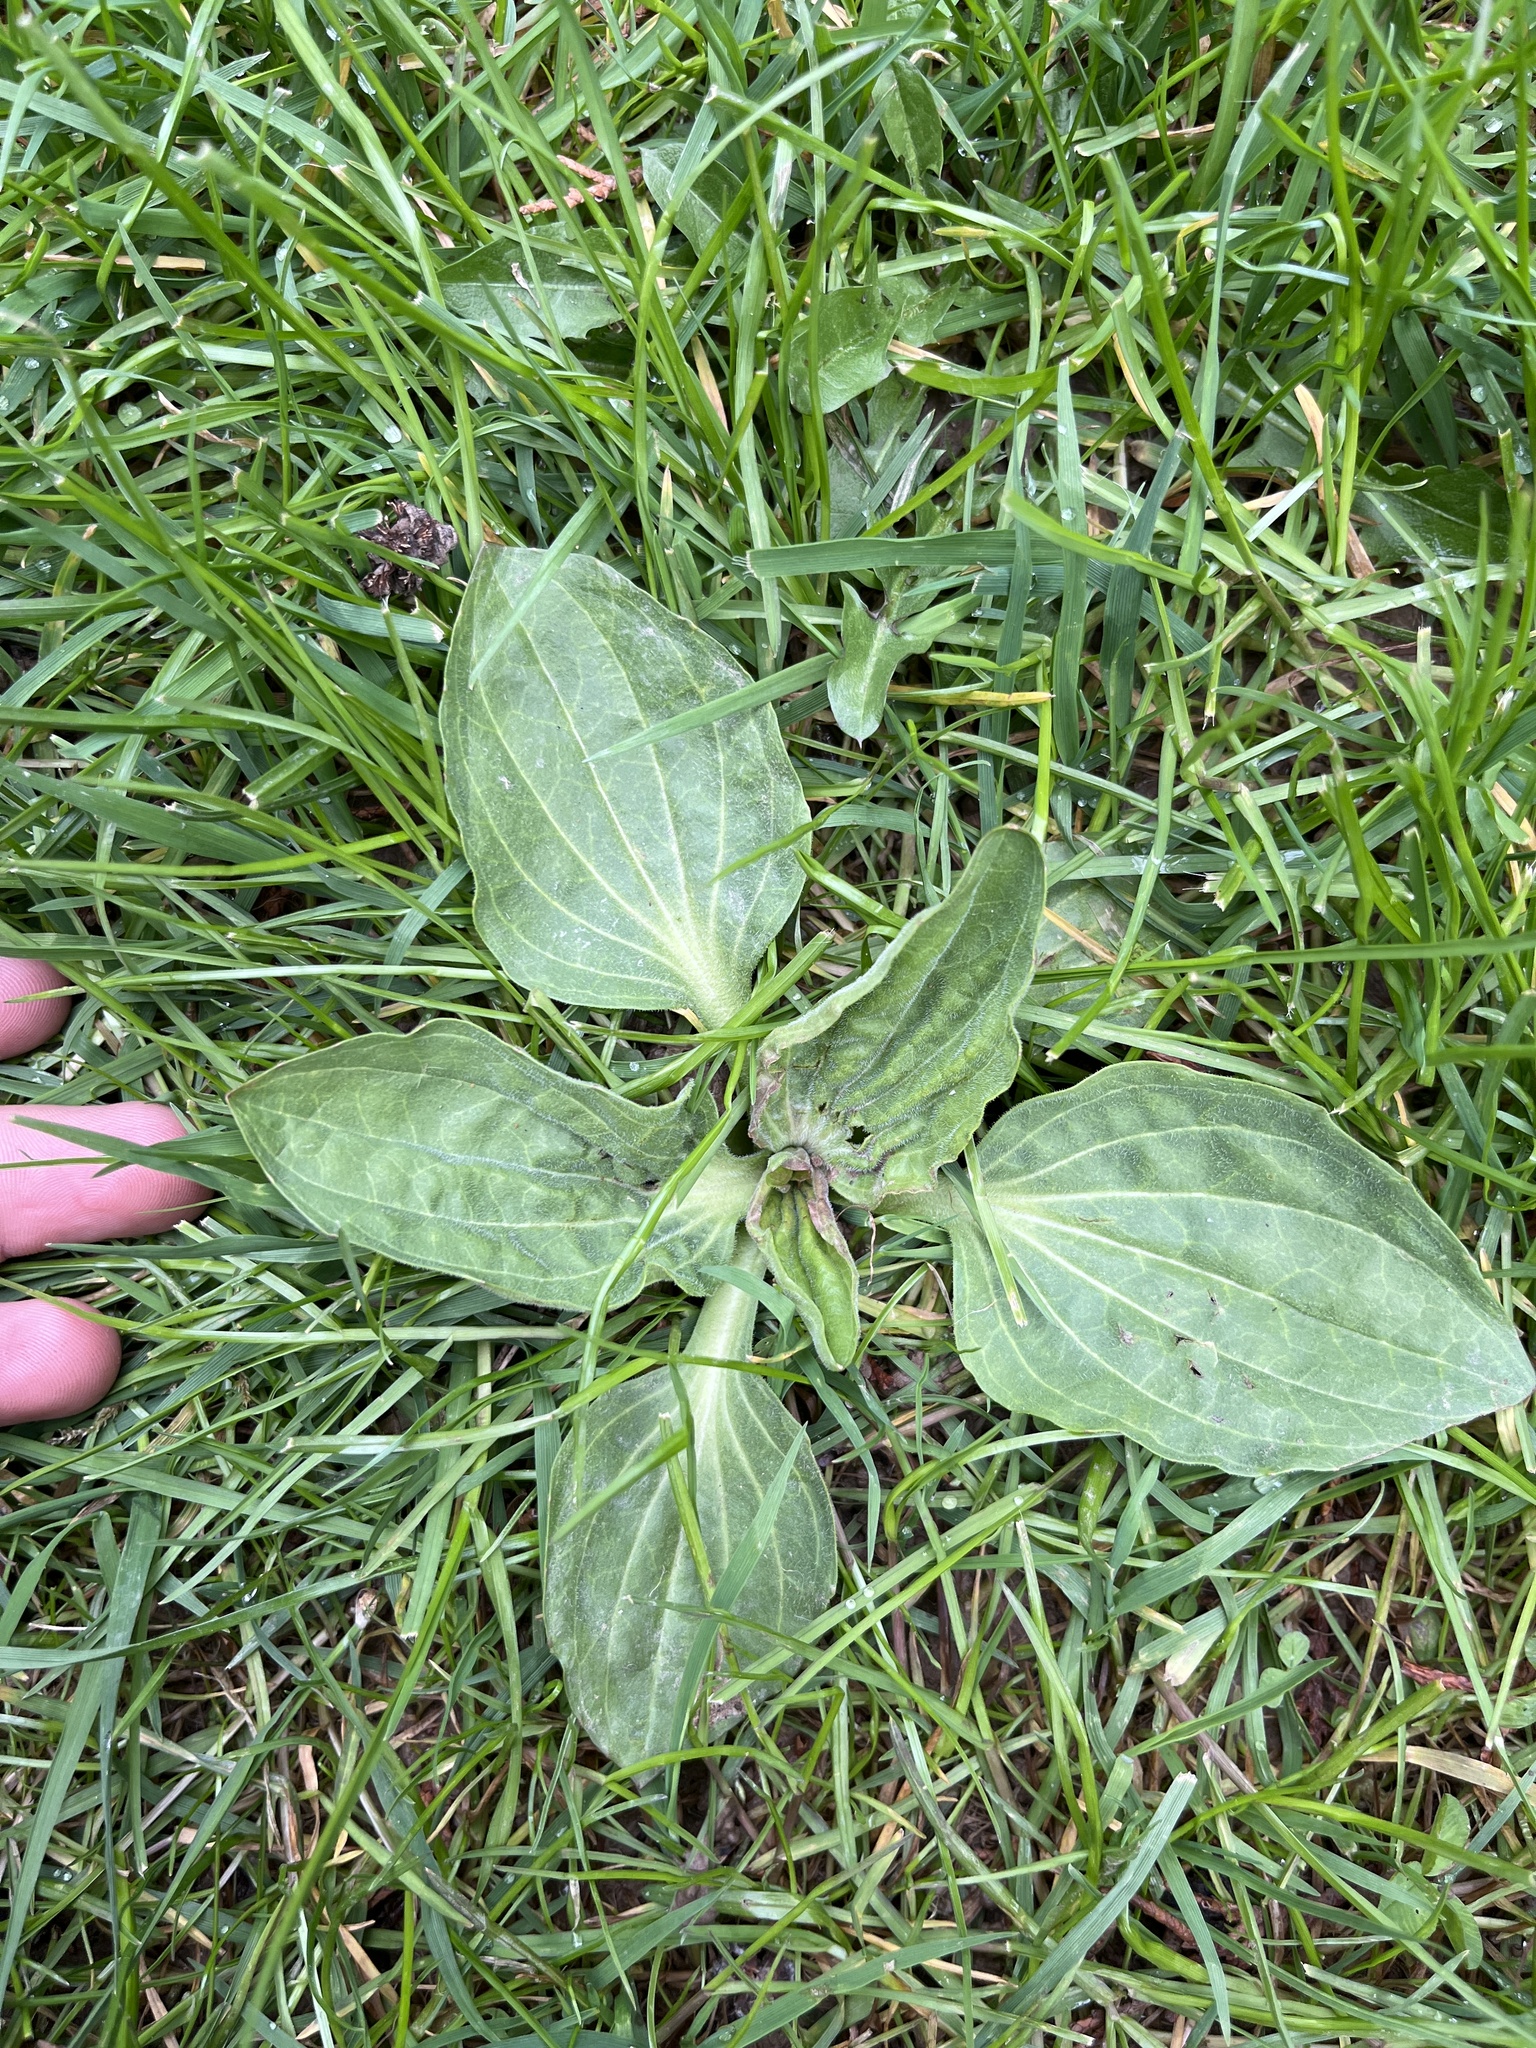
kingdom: Plantae
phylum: Tracheophyta
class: Magnoliopsida
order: Lamiales
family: Plantaginaceae
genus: Plantago
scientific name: Plantago major
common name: Common plantain
